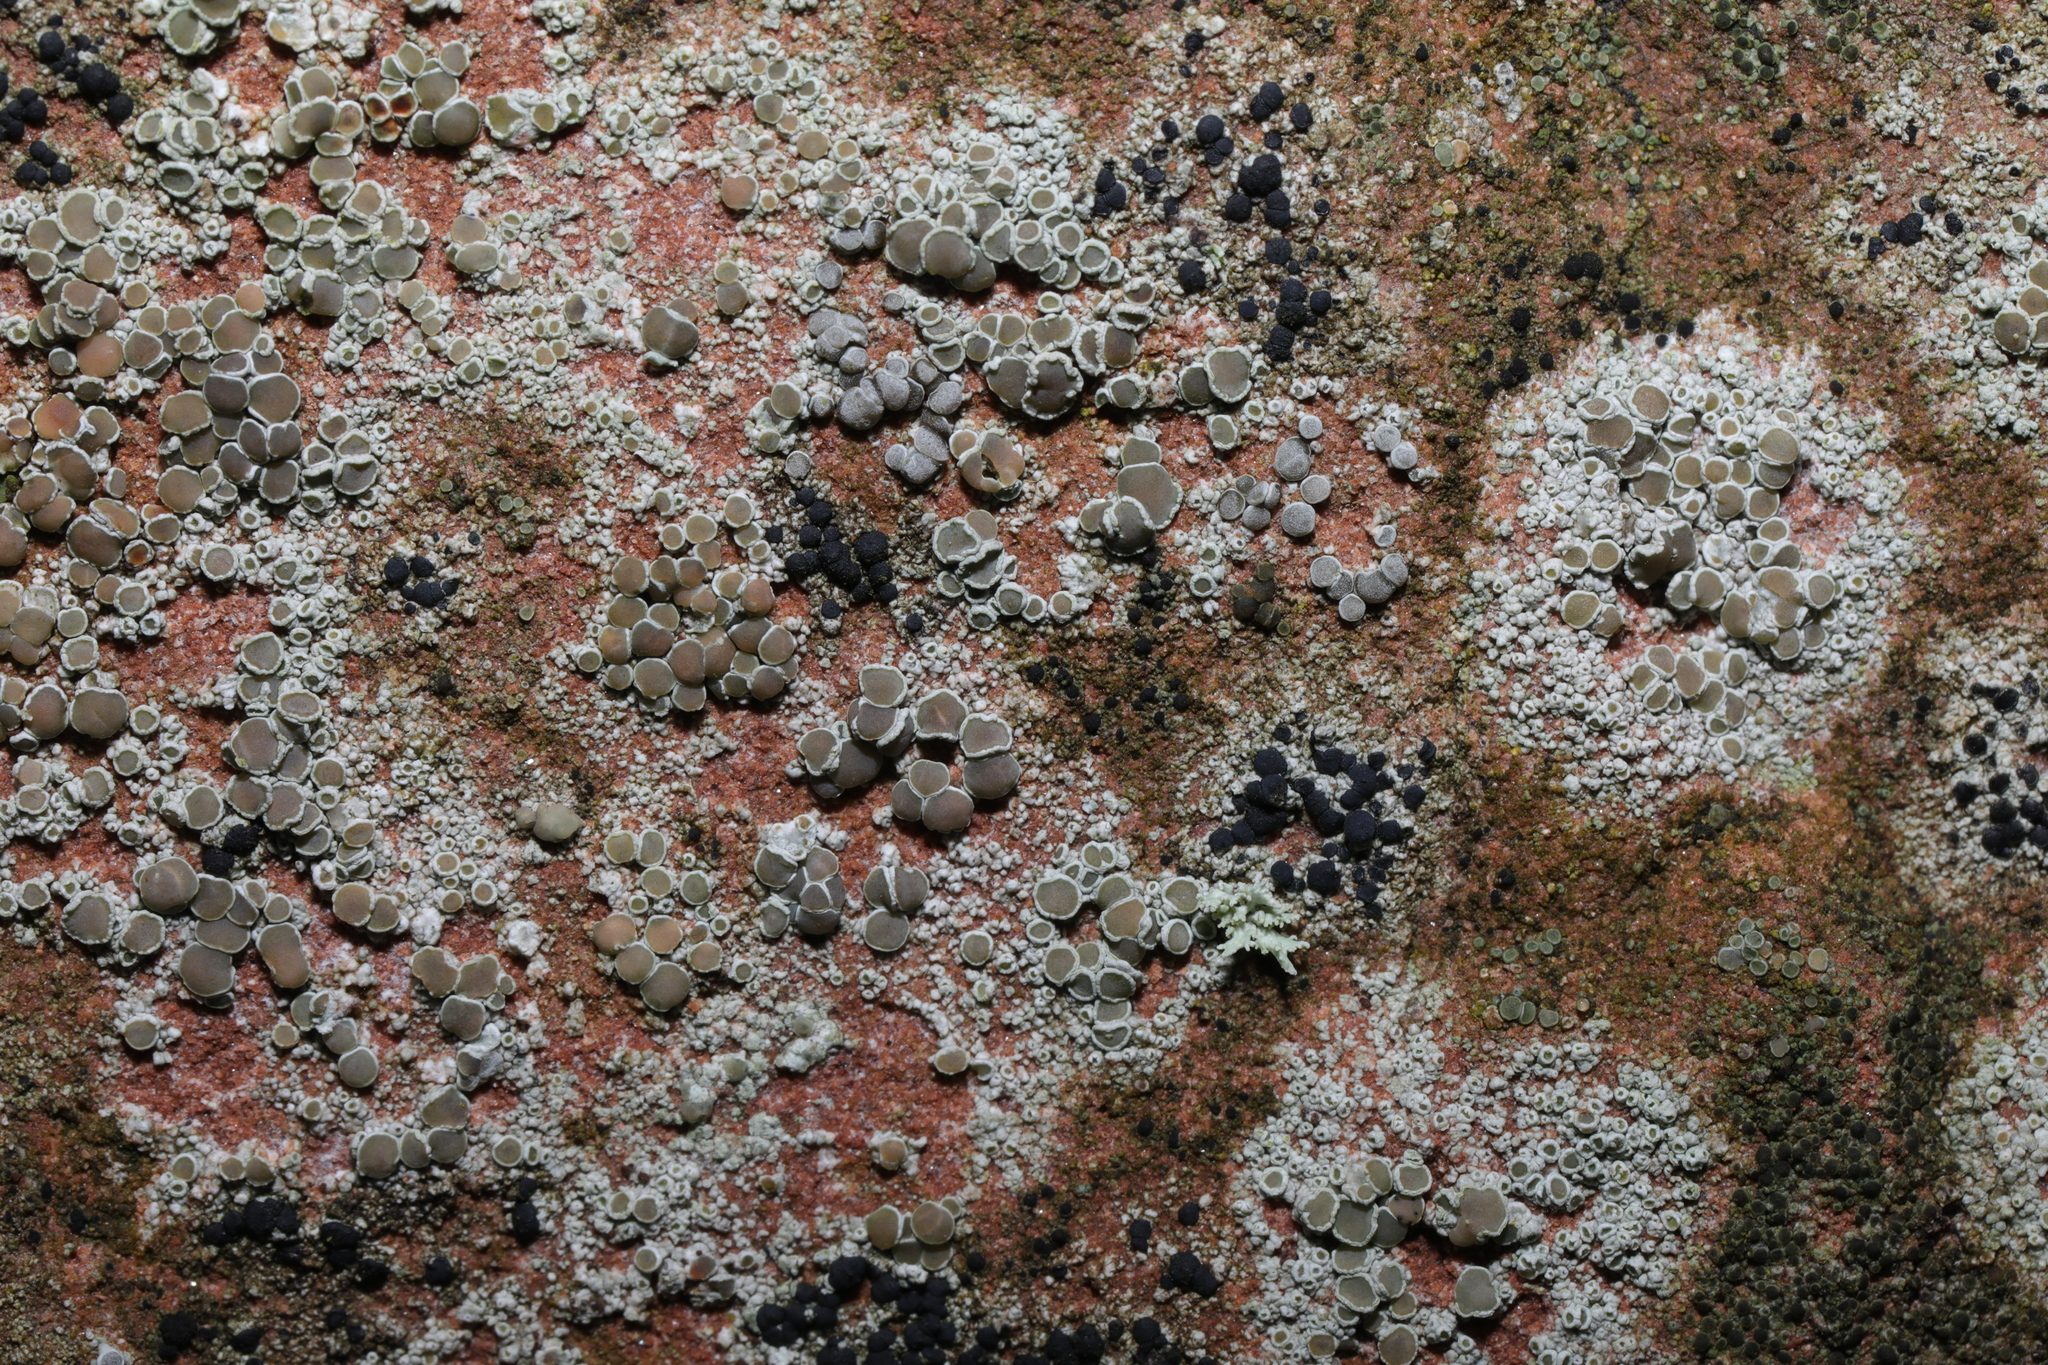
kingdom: Fungi
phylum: Ascomycota
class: Lecanoromycetes
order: Lecanorales
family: Lecanoraceae
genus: Lecanora
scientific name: Lecanora campestris
